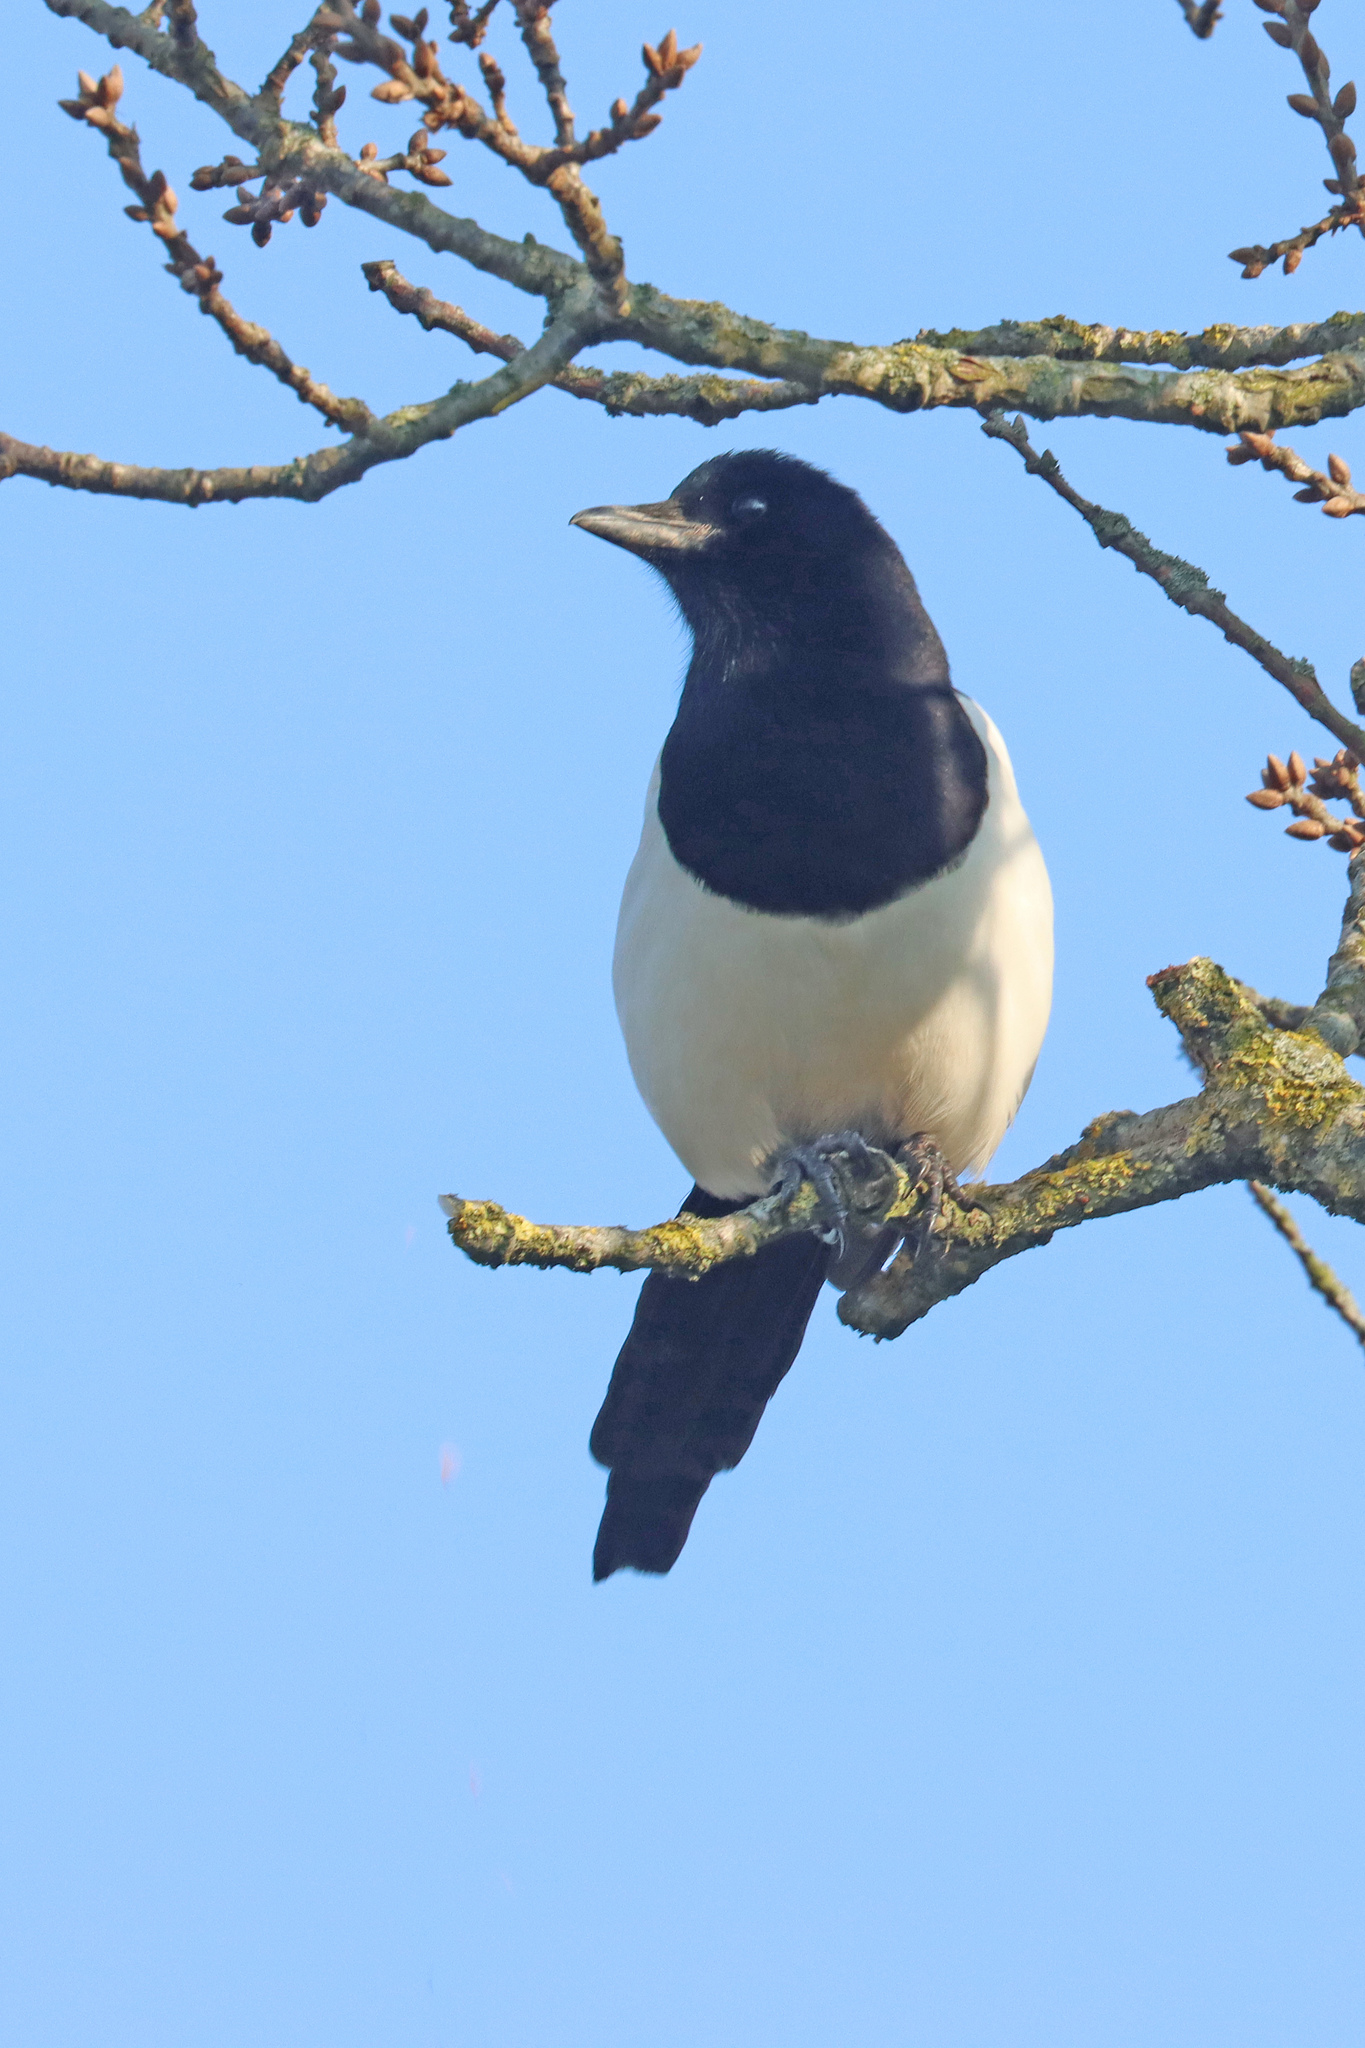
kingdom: Animalia
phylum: Chordata
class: Aves
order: Passeriformes
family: Corvidae
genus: Pica
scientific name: Pica pica
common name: Eurasian magpie
